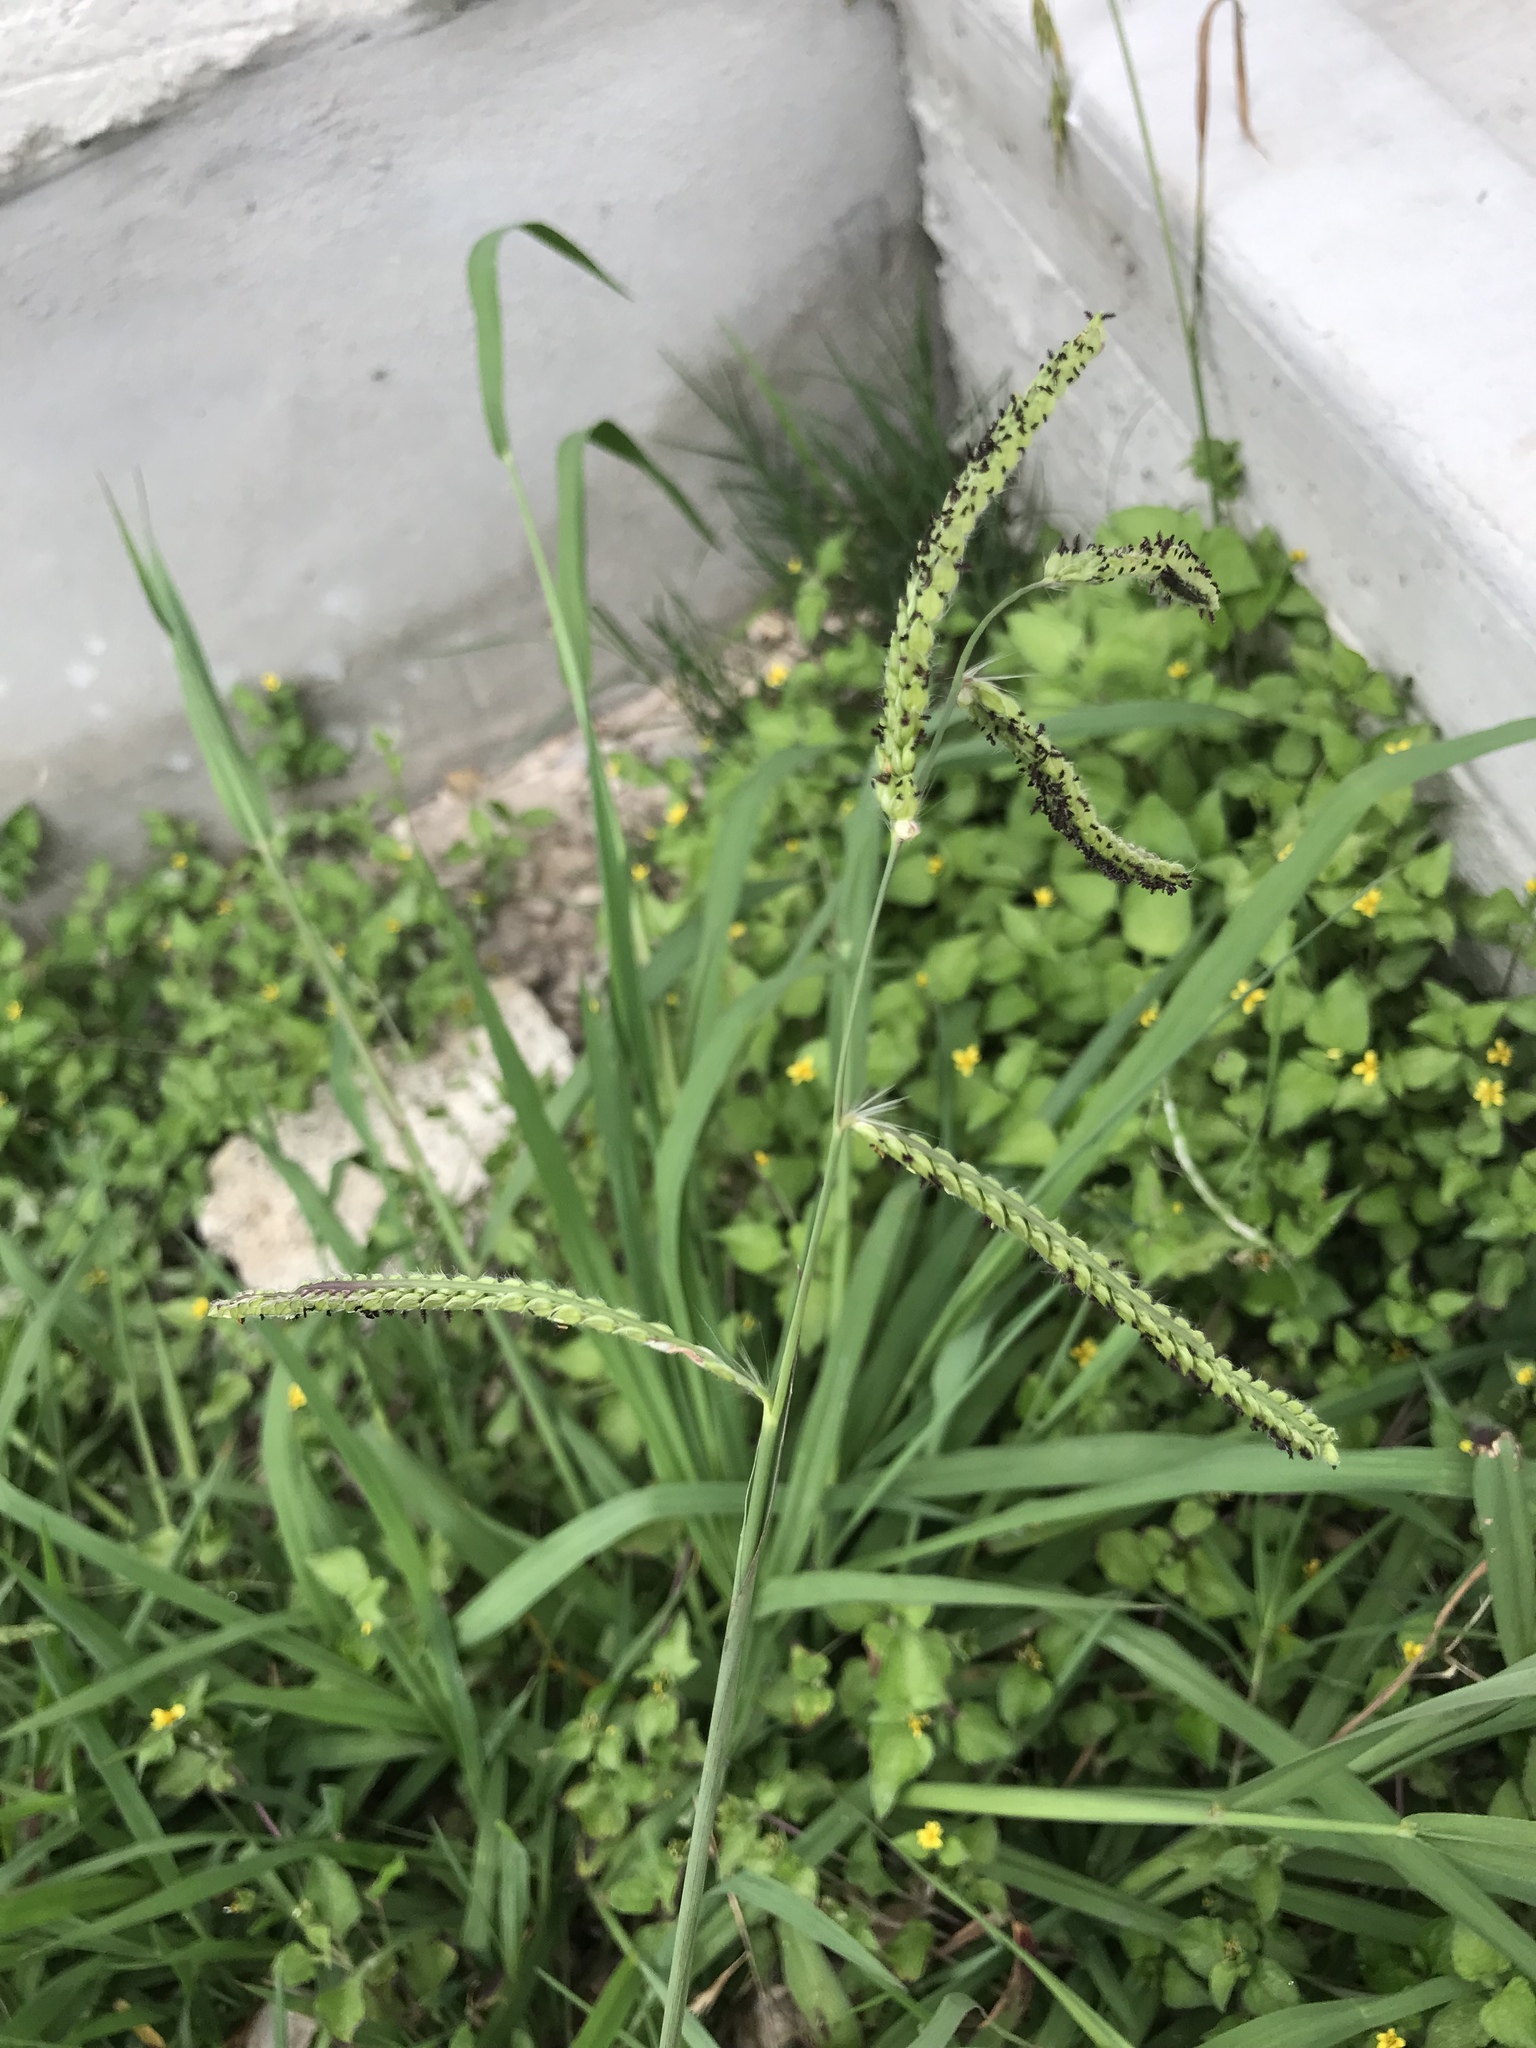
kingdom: Plantae
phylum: Tracheophyta
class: Liliopsida
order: Poales
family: Poaceae
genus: Paspalum
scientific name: Paspalum dilatatum
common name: Dallisgrass
